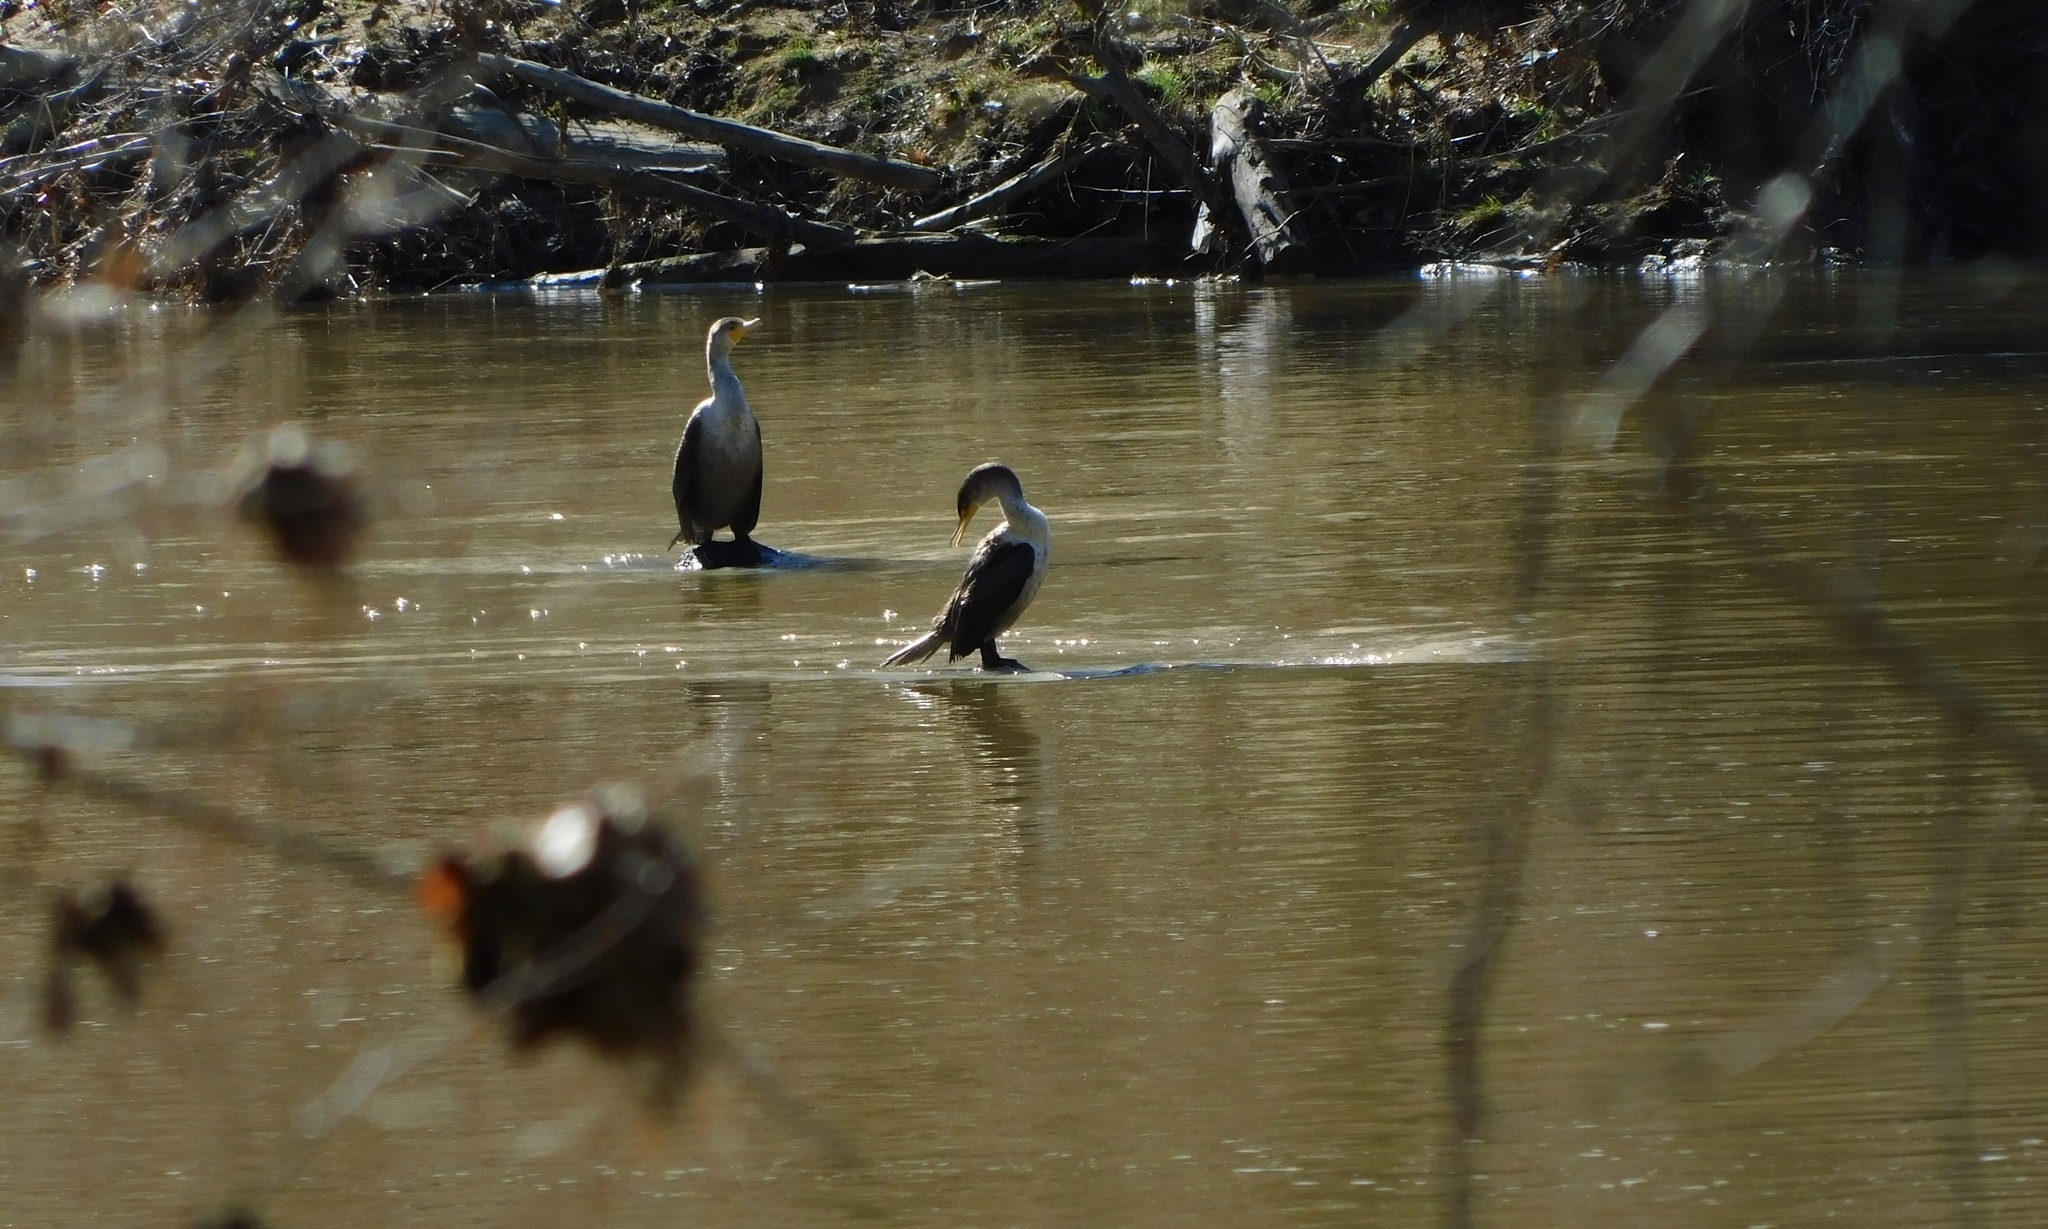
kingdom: Animalia
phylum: Chordata
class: Aves
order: Suliformes
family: Phalacrocoracidae
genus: Phalacrocorax
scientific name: Phalacrocorax auritus
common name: Double-crested cormorant
